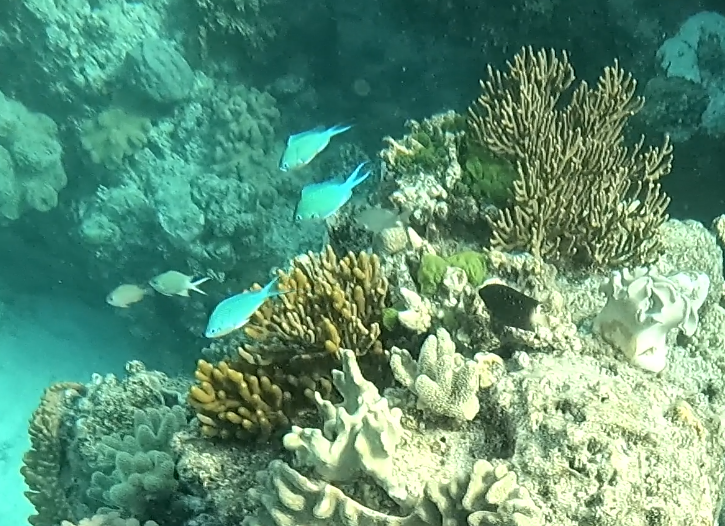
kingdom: Animalia
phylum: Chordata
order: Perciformes
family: Pomacentridae
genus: Plectroglyphidodon
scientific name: Plectroglyphidodon lacrymatus
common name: Jewel damsel
